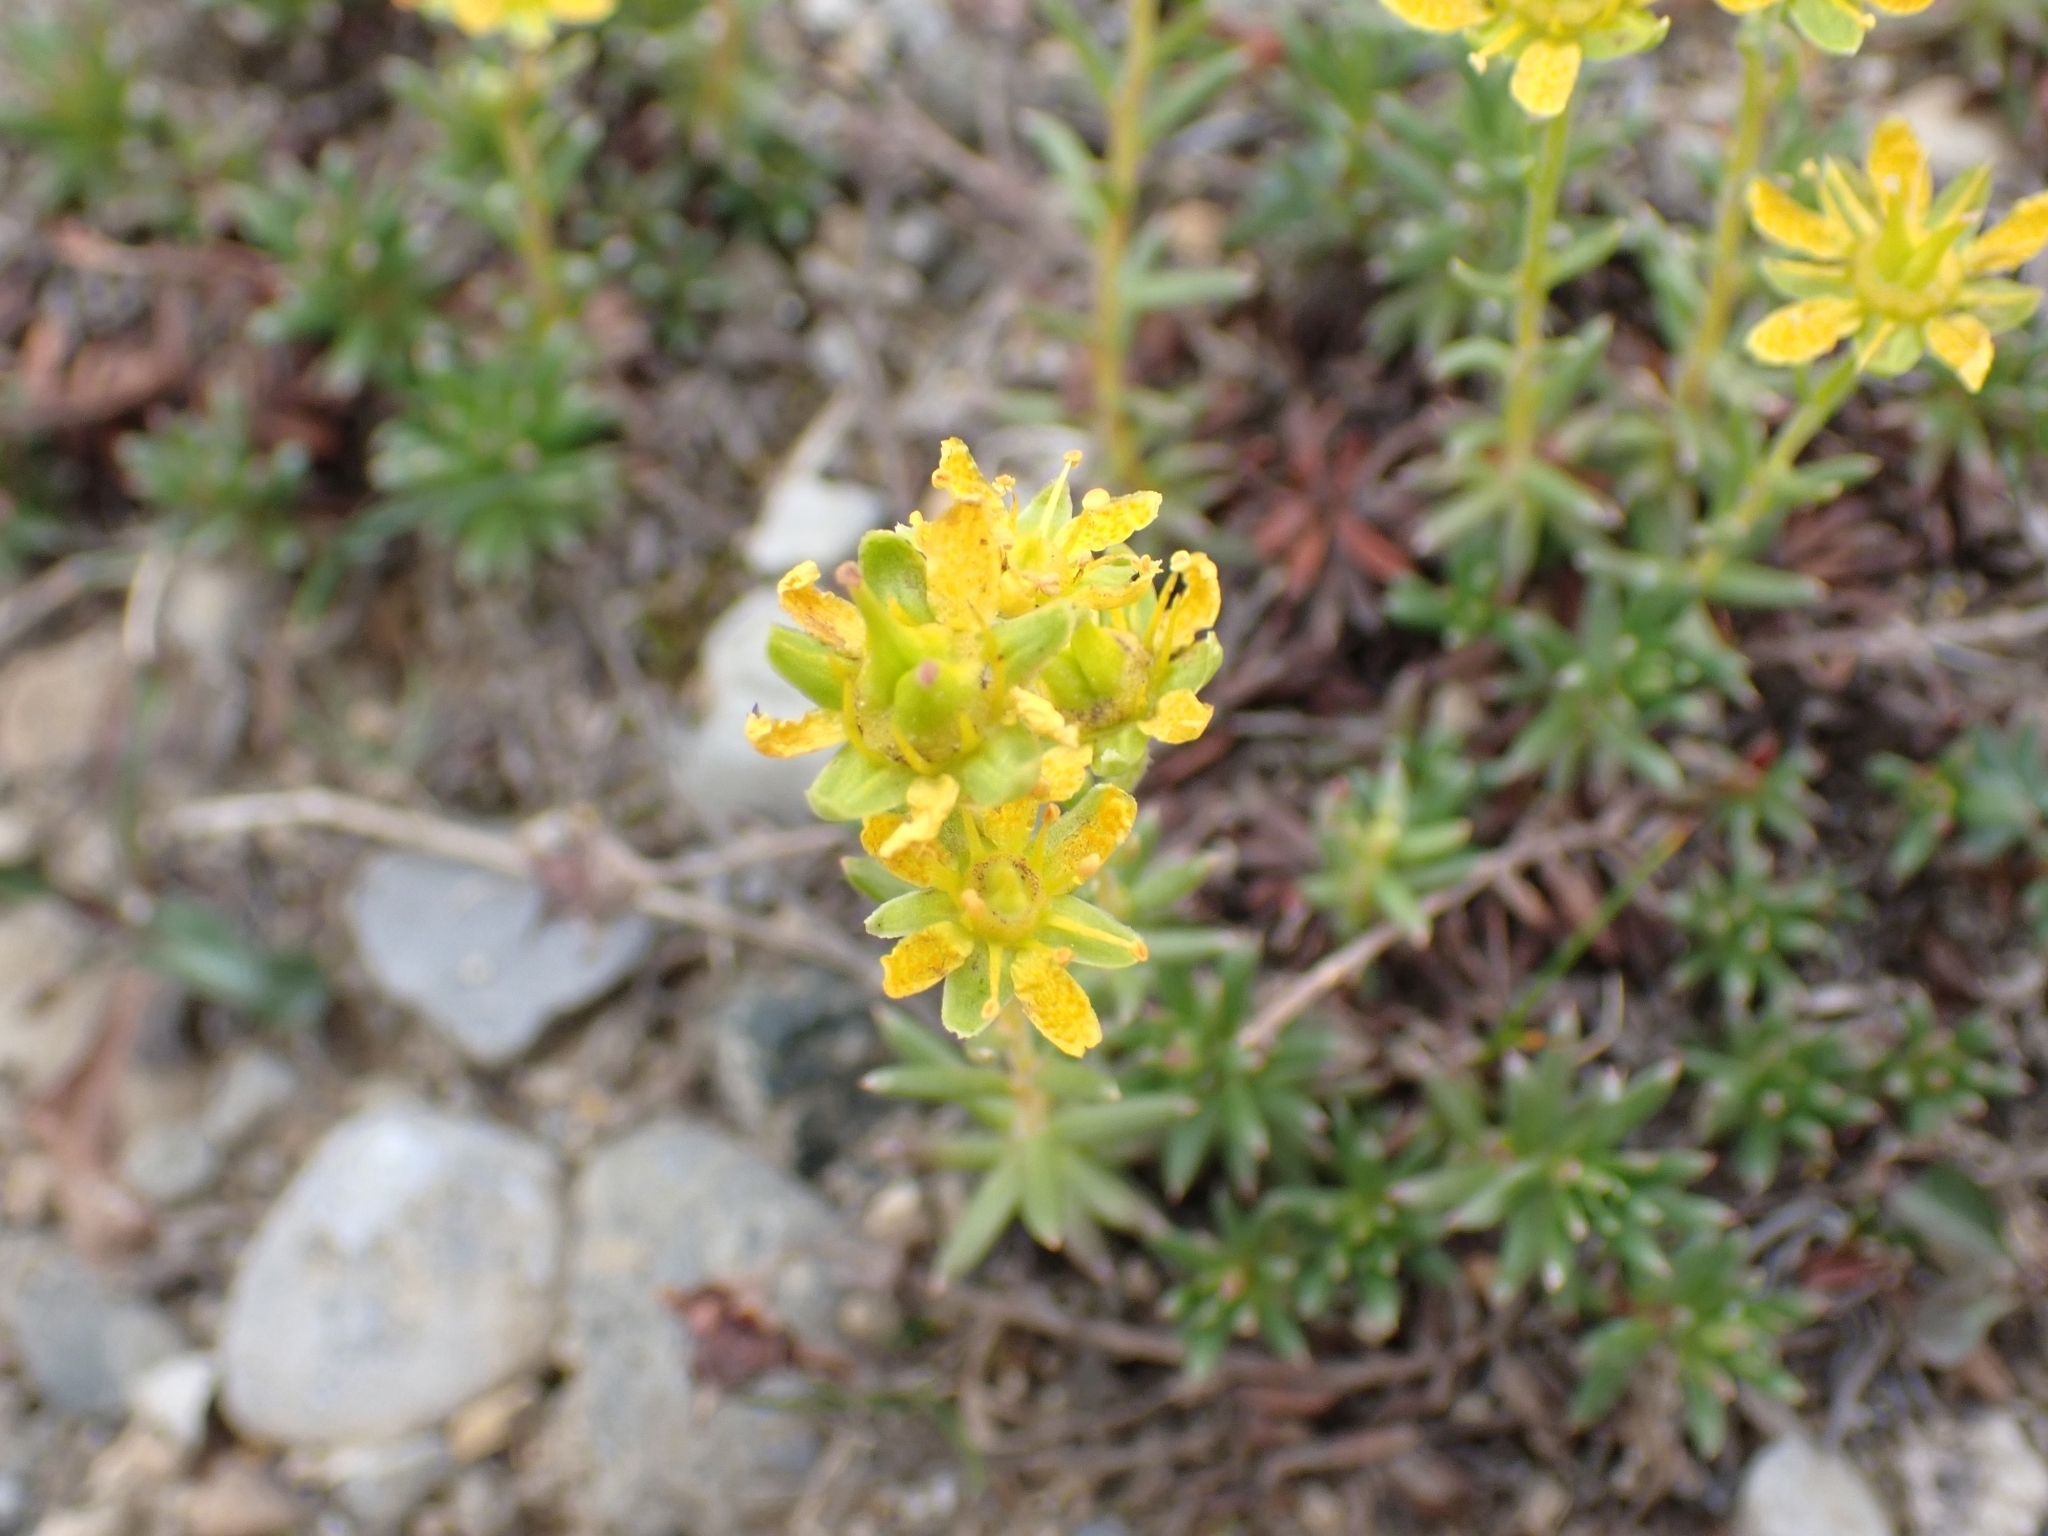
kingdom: Plantae
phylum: Tracheophyta
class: Magnoliopsida
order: Saxifragales
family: Saxifragaceae
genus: Saxifraga
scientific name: Saxifraga aizoides
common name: Yellow mountain saxifrage
